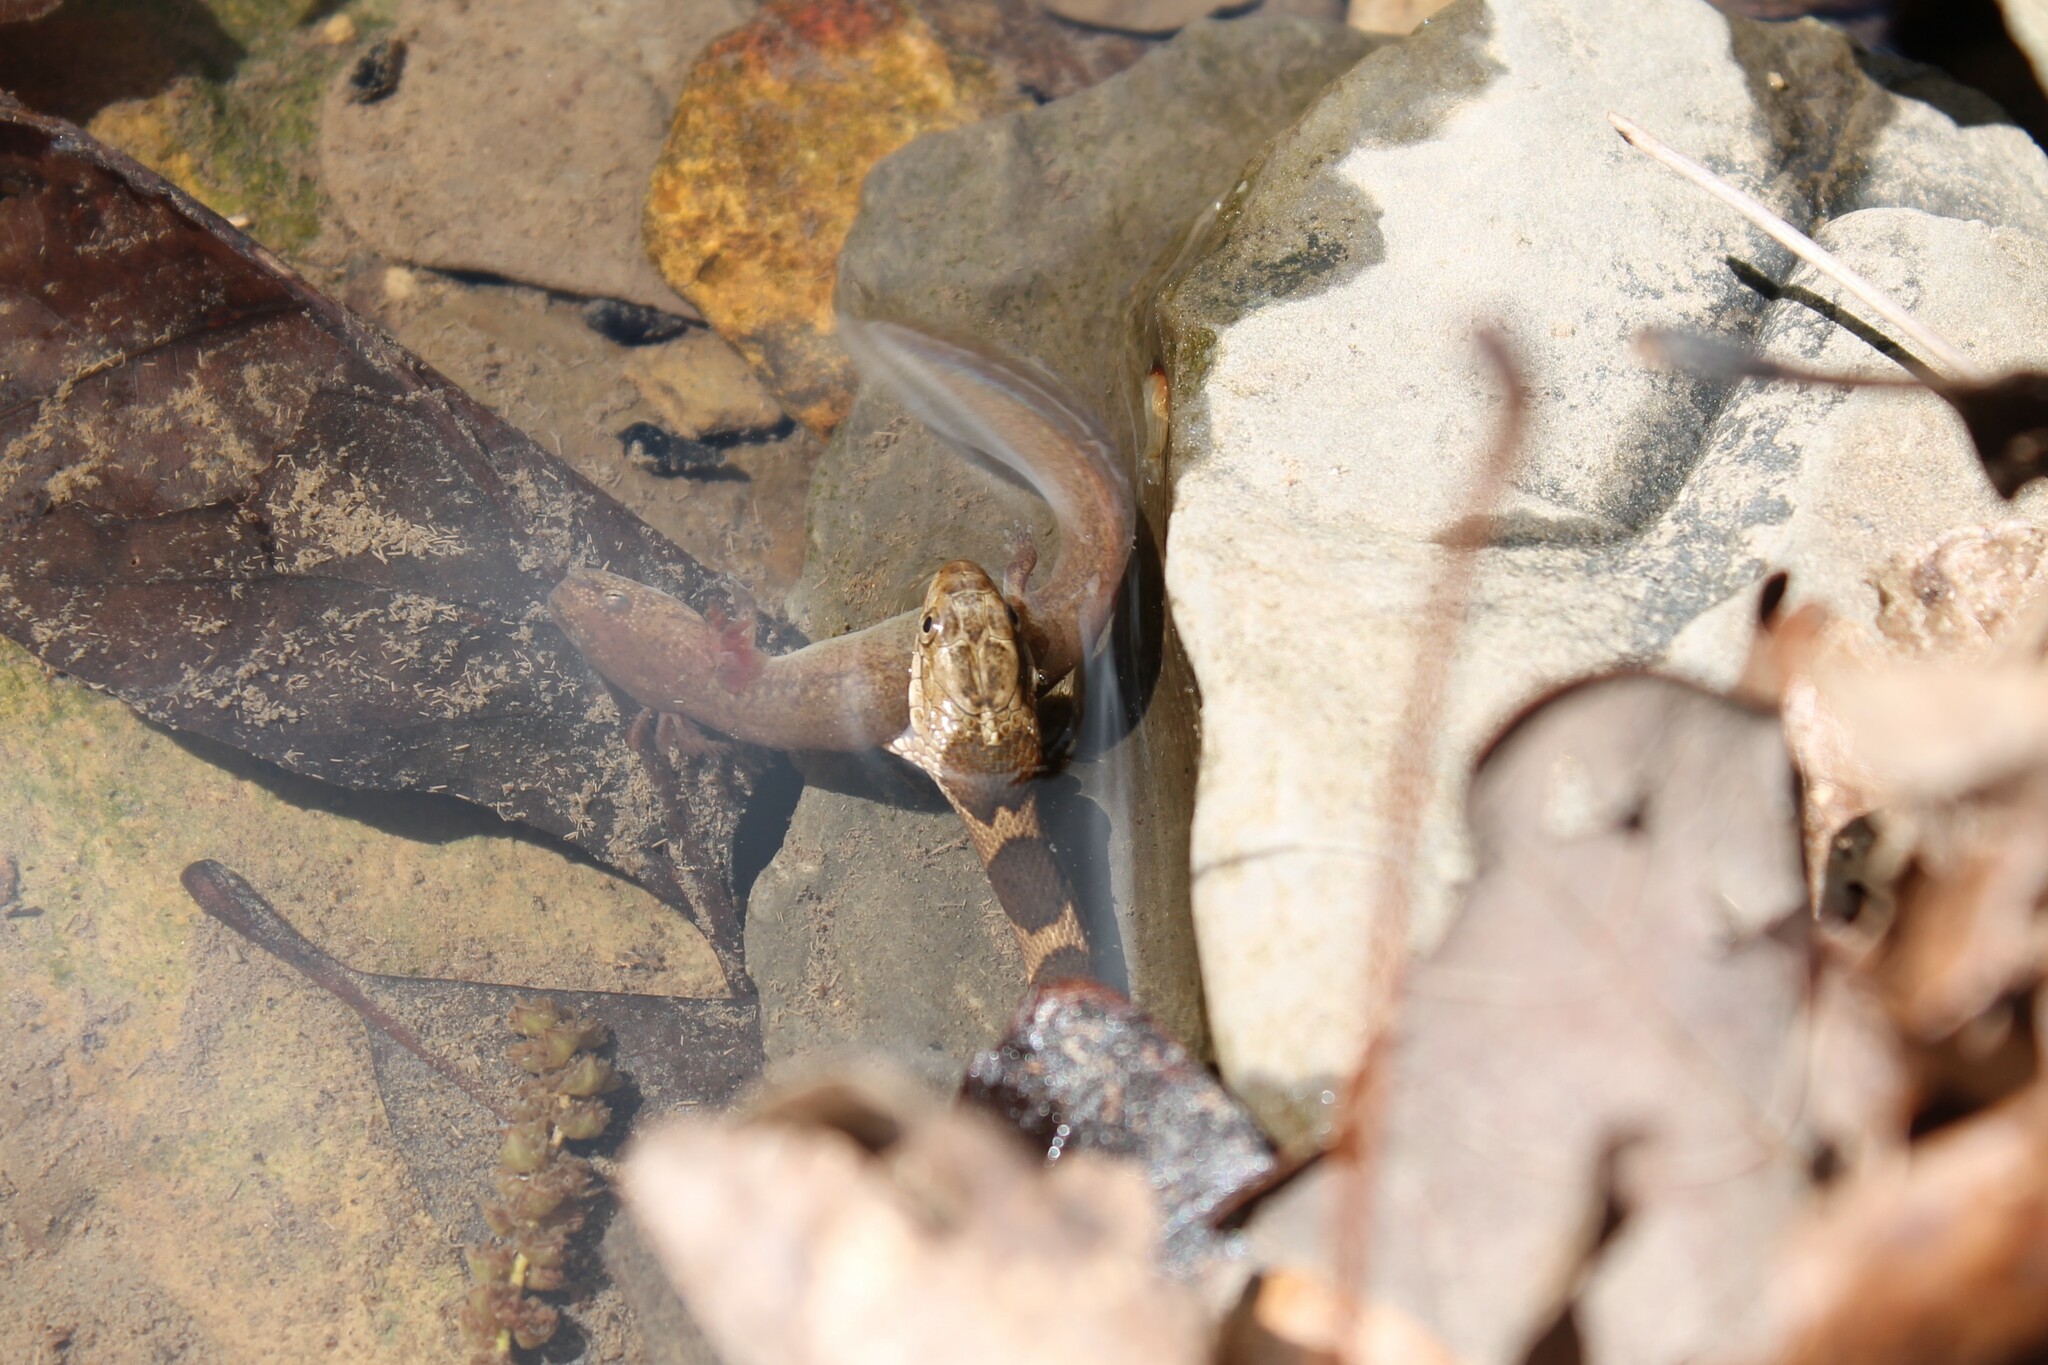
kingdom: Animalia
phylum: Chordata
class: Squamata
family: Colubridae
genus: Nerodia
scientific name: Nerodia sipedon
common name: Northern water snake
